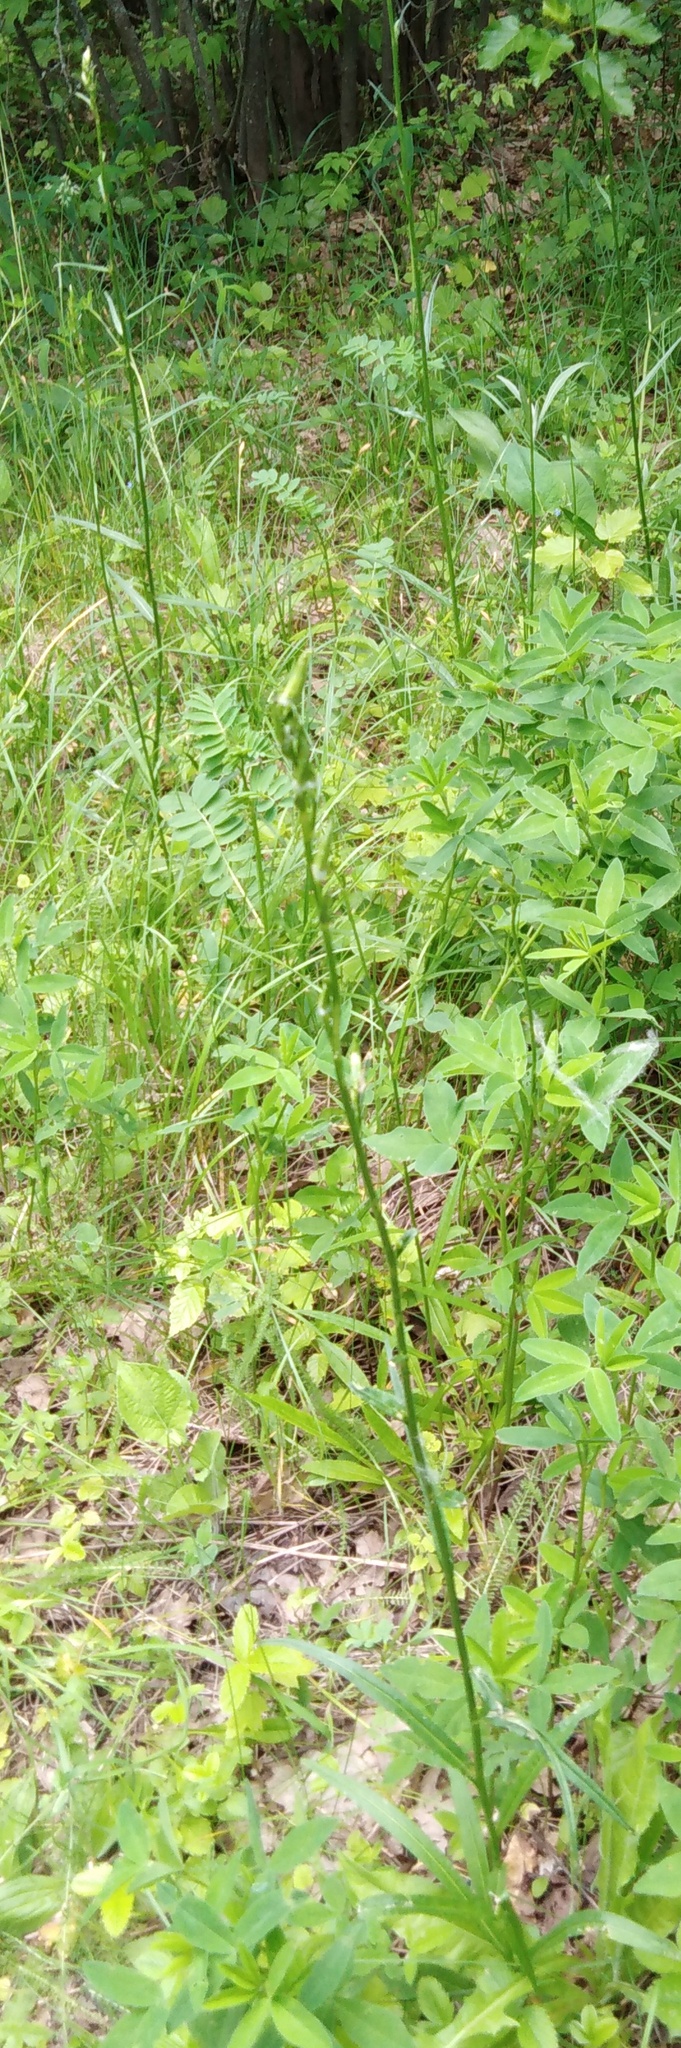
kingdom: Plantae
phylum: Tracheophyta
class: Magnoliopsida
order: Asterales
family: Campanulaceae
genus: Campanula
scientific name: Campanula persicifolia
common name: Peach-leaved bellflower
